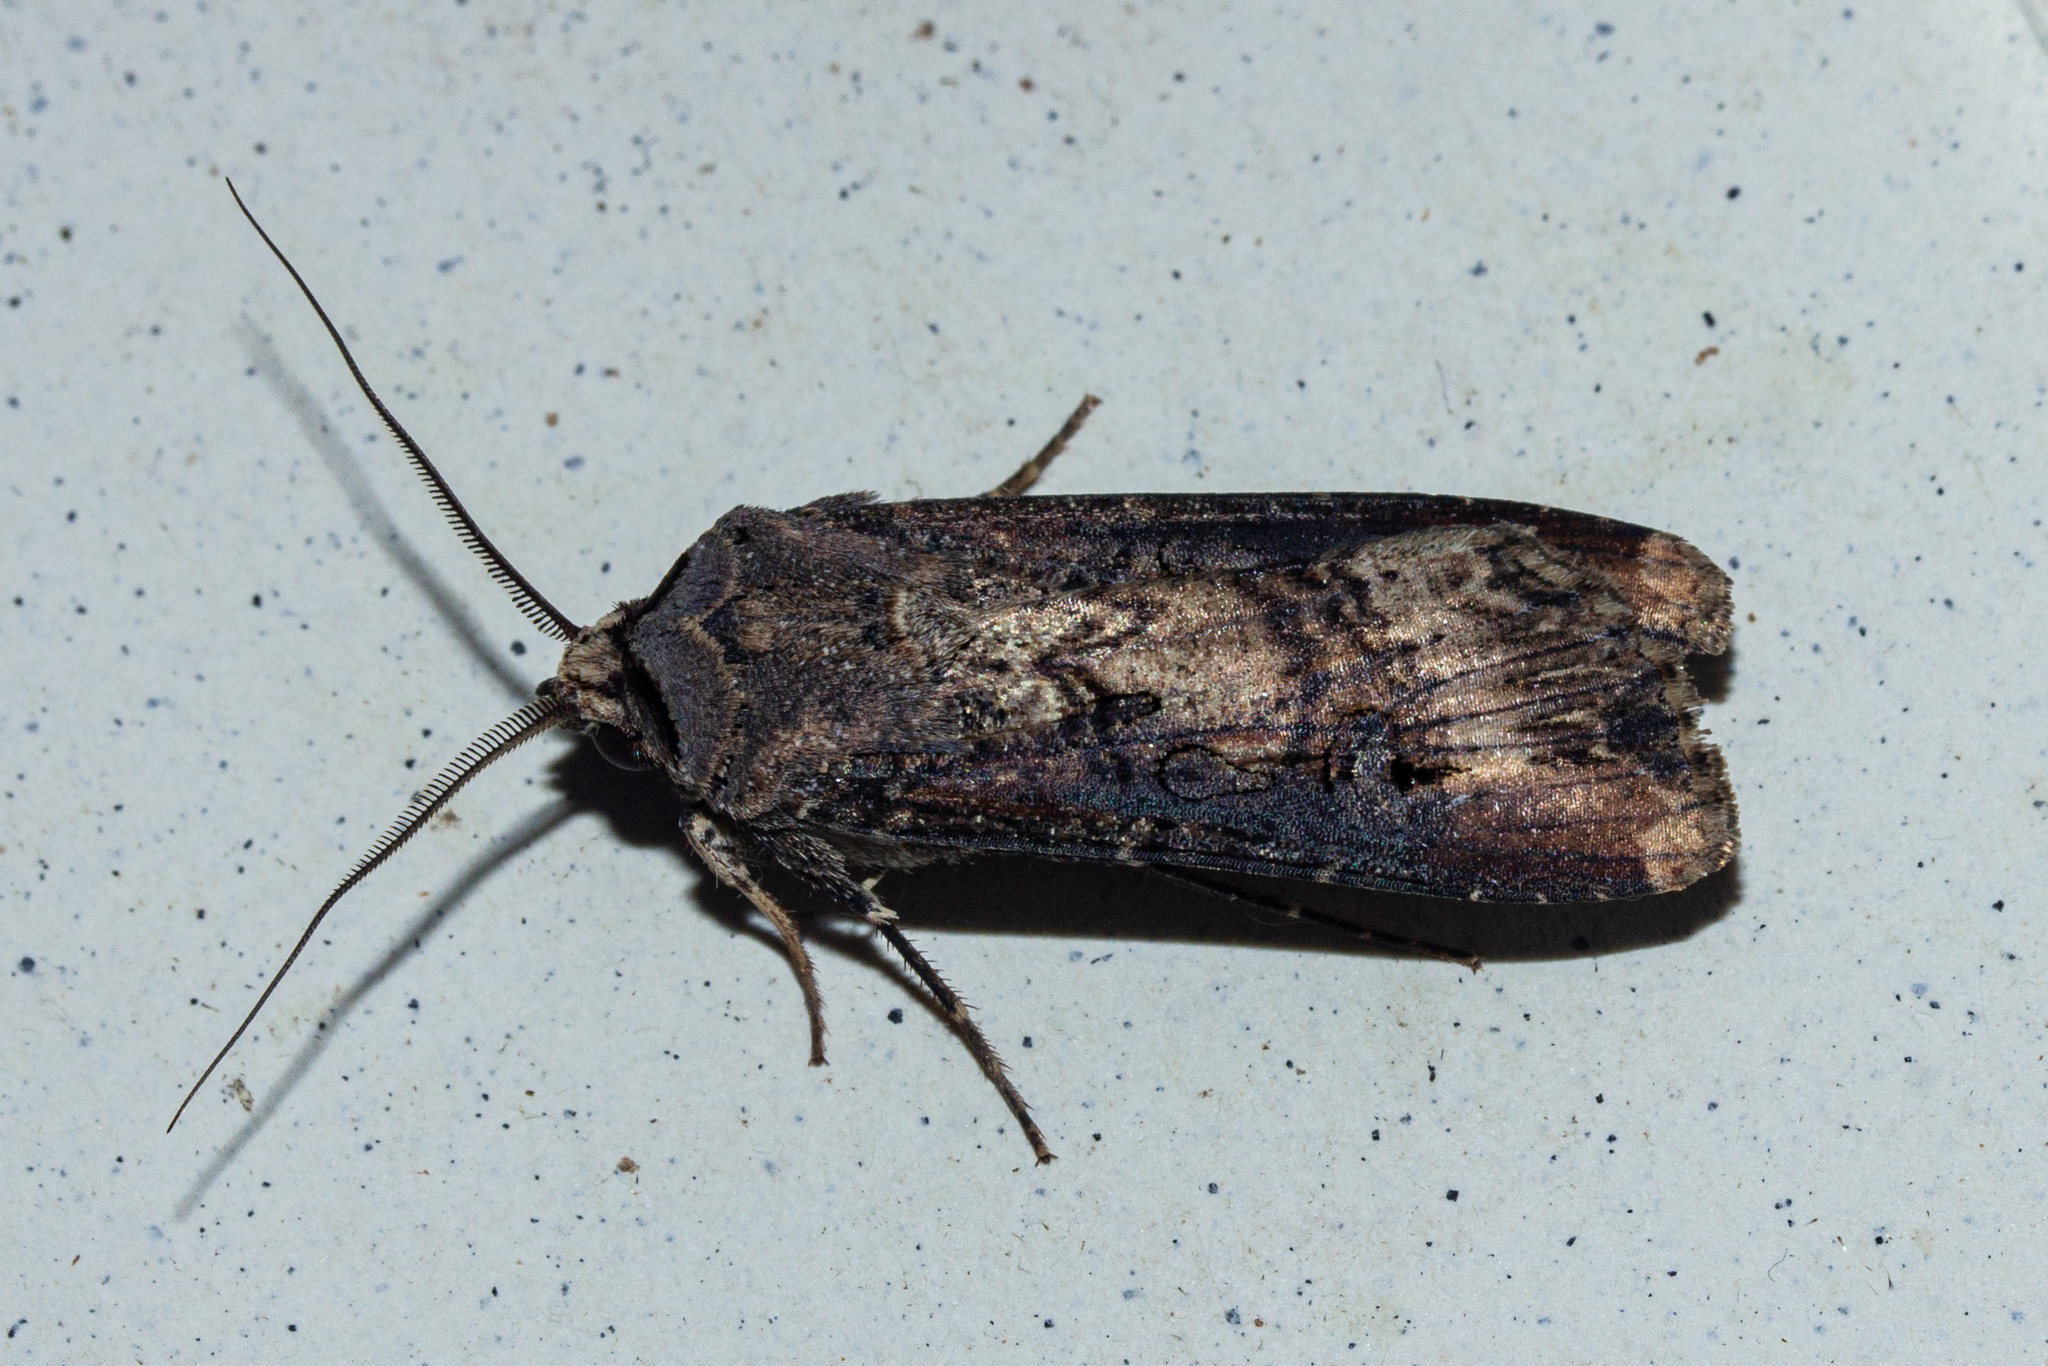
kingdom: Animalia
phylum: Arthropoda
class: Insecta
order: Lepidoptera
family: Noctuidae
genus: Agrotis
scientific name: Agrotis ipsilon
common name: Dark sword-grass
